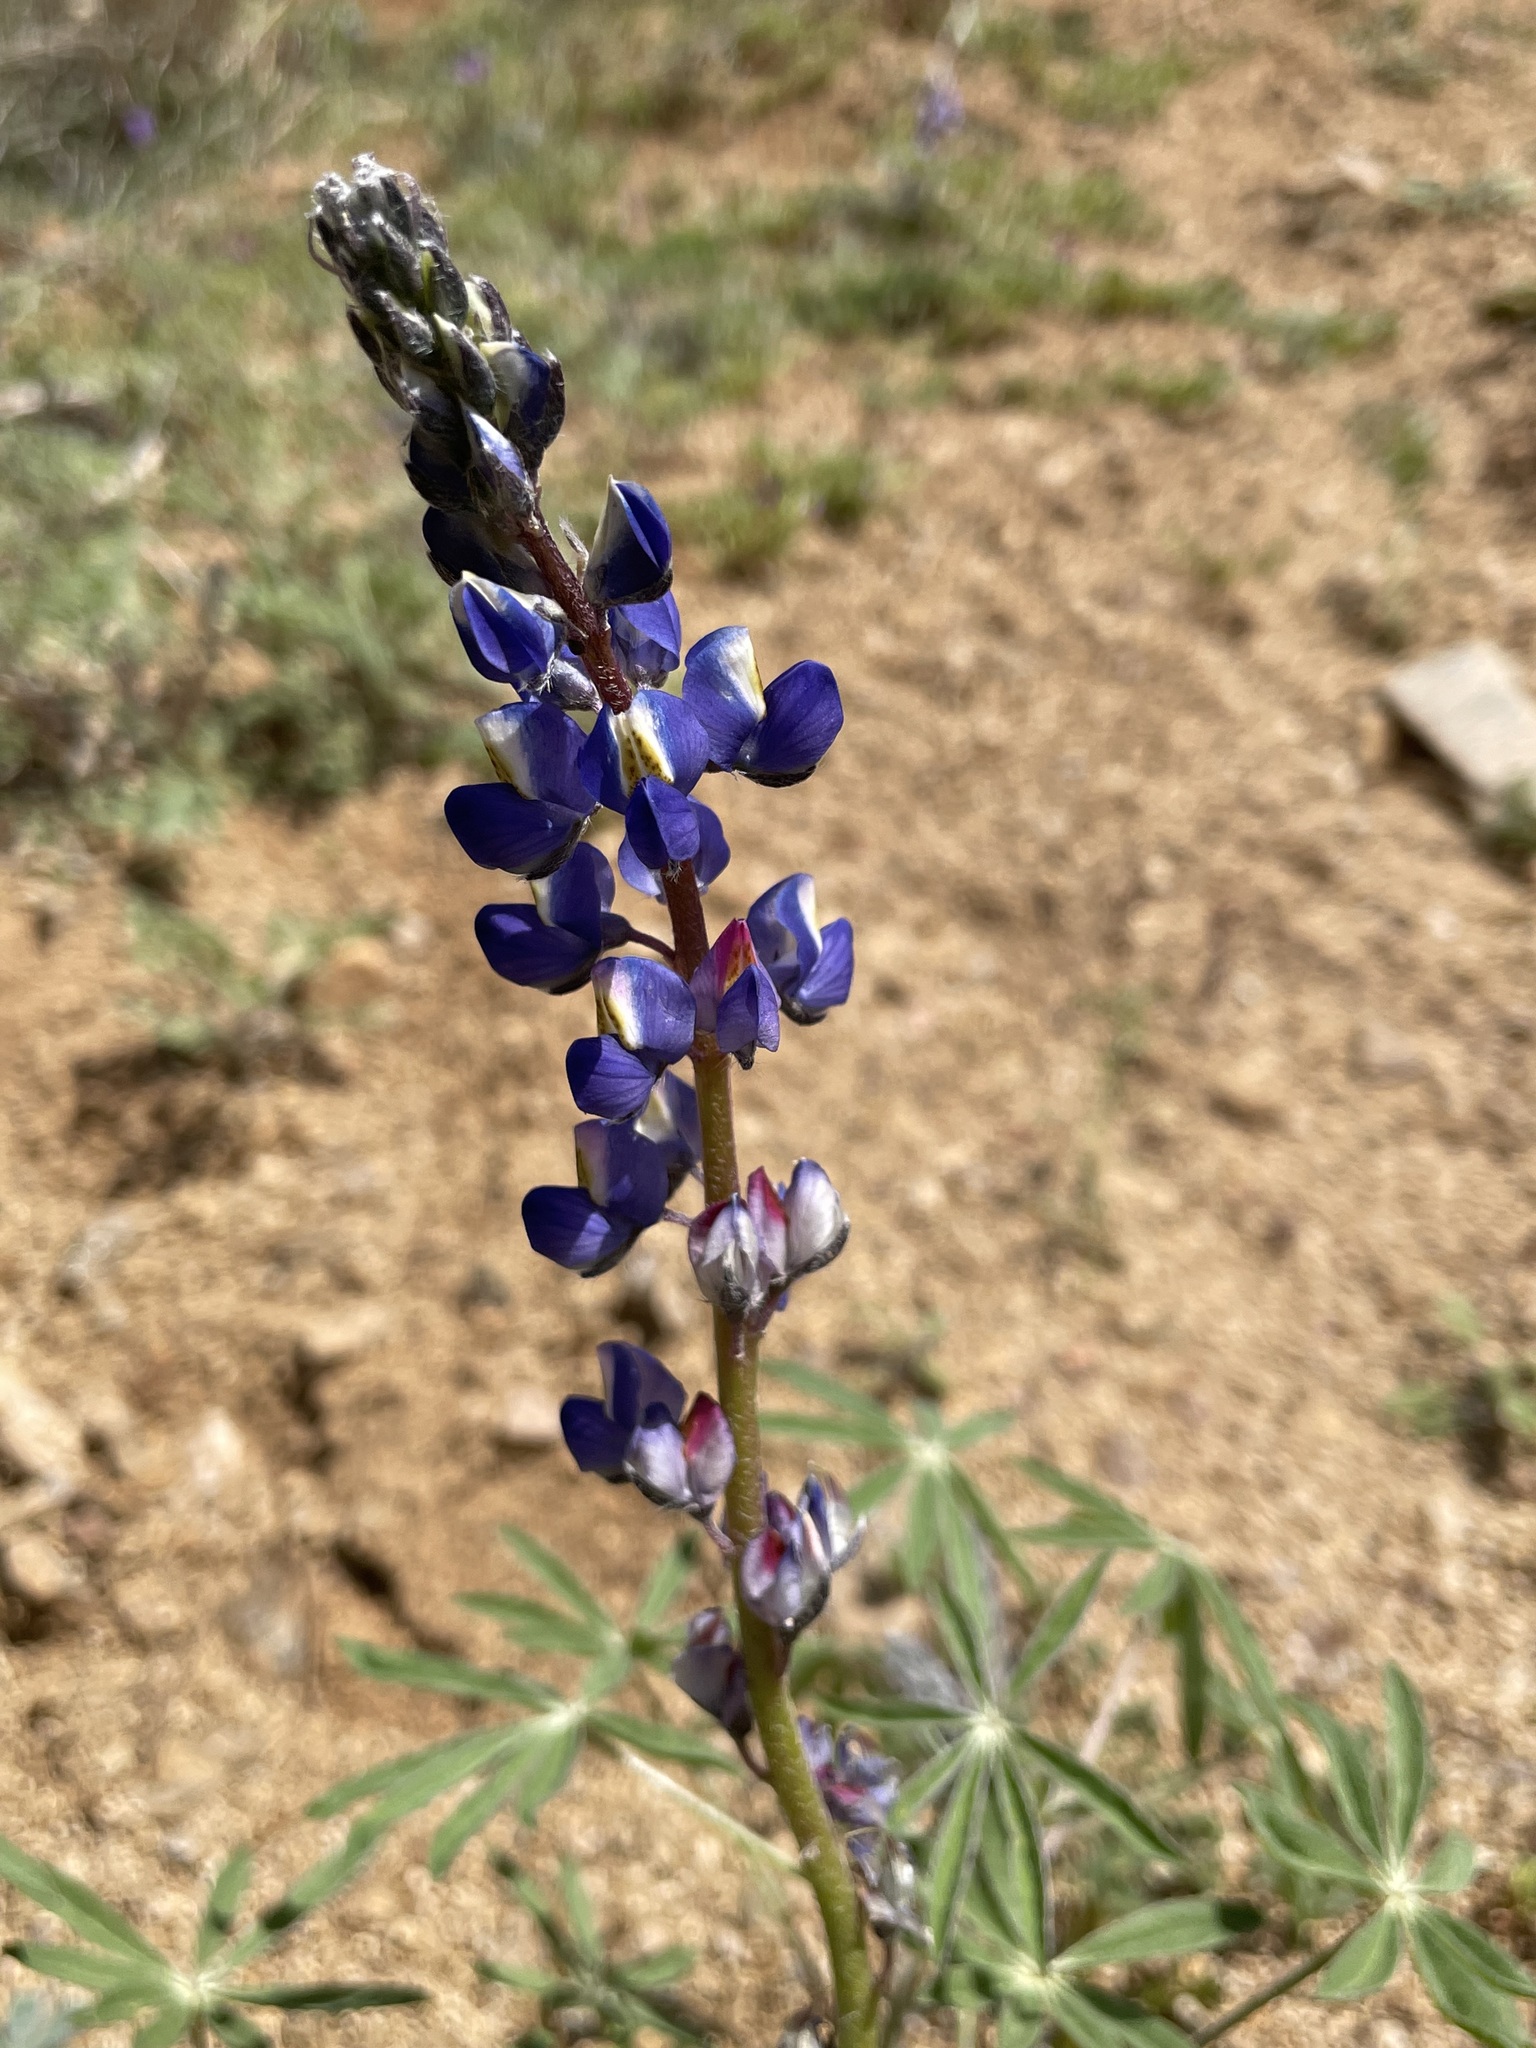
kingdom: Plantae
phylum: Tracheophyta
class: Magnoliopsida
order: Fabales
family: Fabaceae
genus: Lupinus
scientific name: Lupinus sparsiflorus
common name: Coulter's lupine
